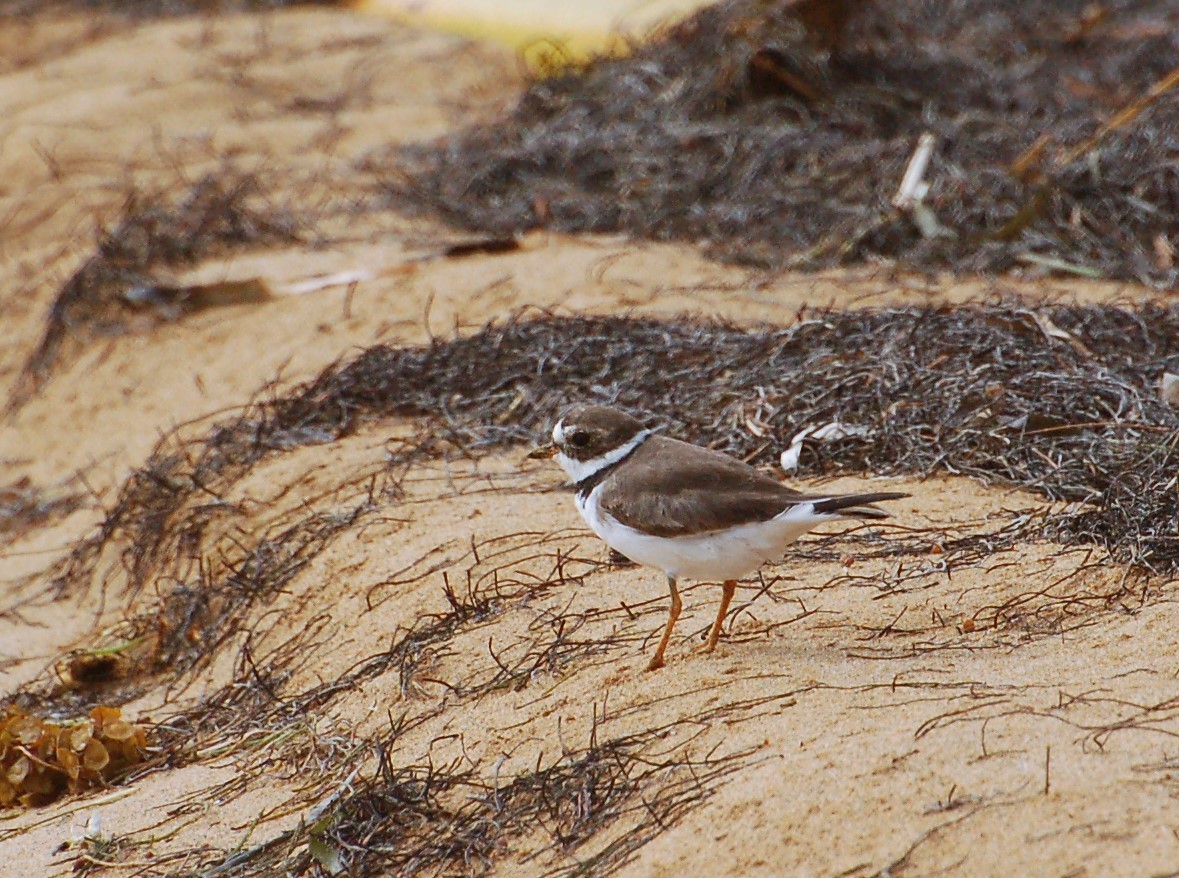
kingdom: Animalia
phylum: Chordata
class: Aves
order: Charadriiformes
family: Charadriidae
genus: Charadrius
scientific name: Charadrius semipalmatus
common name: Semipalmated plover
